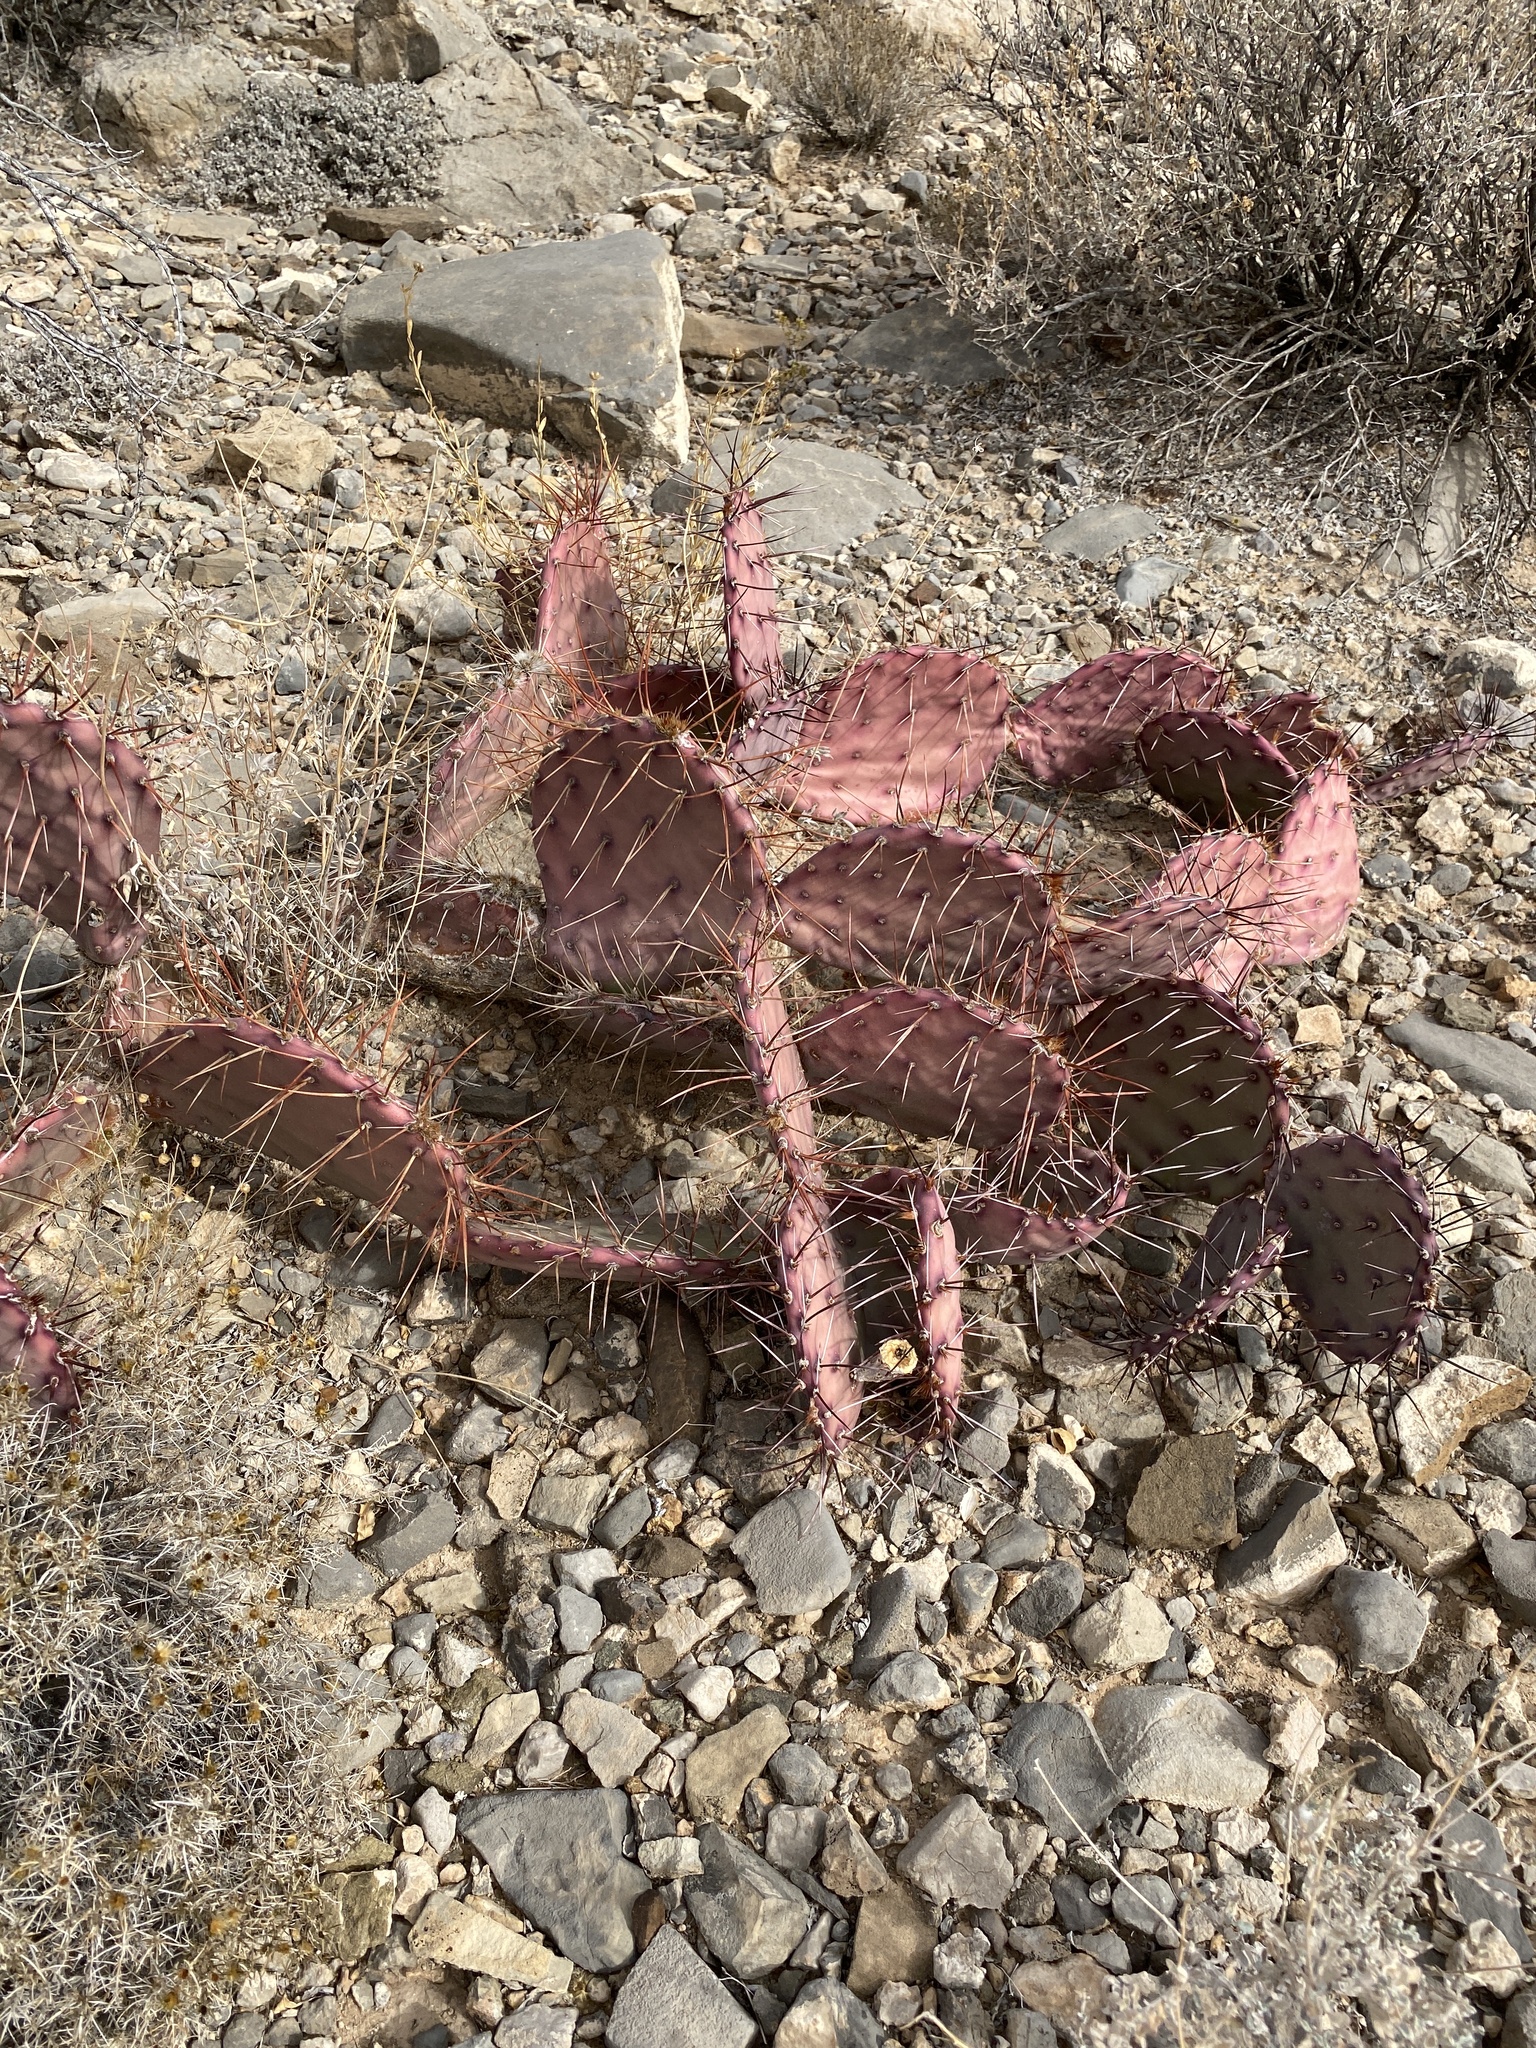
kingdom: Plantae
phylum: Tracheophyta
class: Magnoliopsida
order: Caryophyllales
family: Cactaceae
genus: Opuntia
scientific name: Opuntia phaeacantha
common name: New mexico prickly-pear
